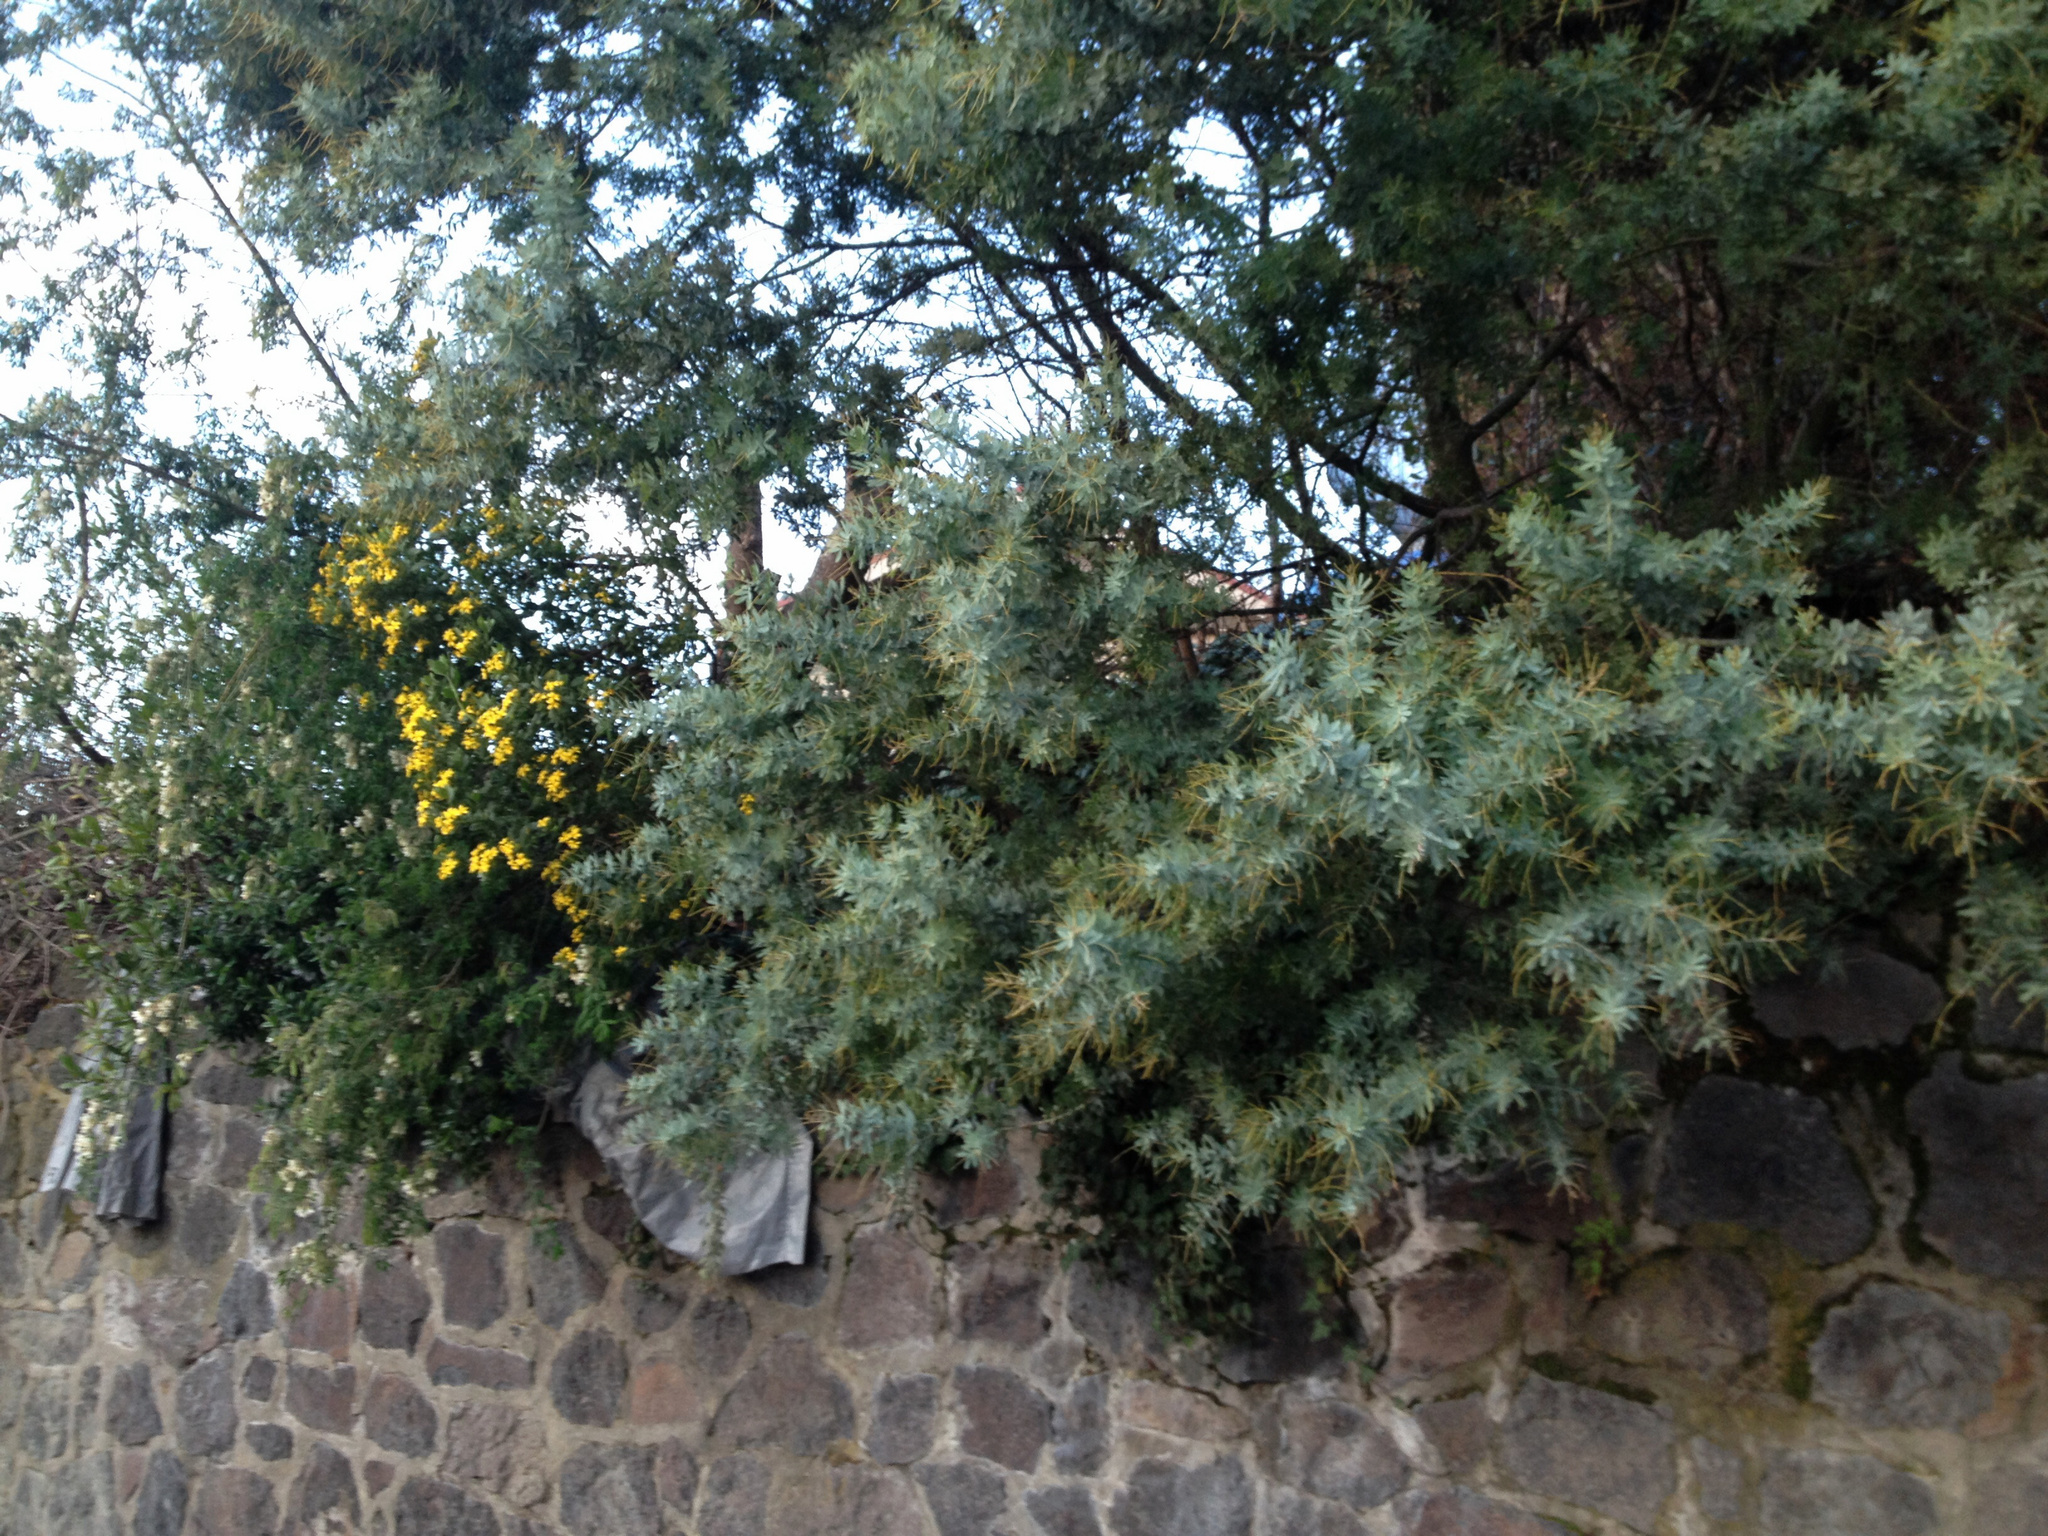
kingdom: Plantae
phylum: Tracheophyta
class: Magnoliopsida
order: Asterales
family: Asteraceae
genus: Osteospermum
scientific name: Osteospermum moniliferum
